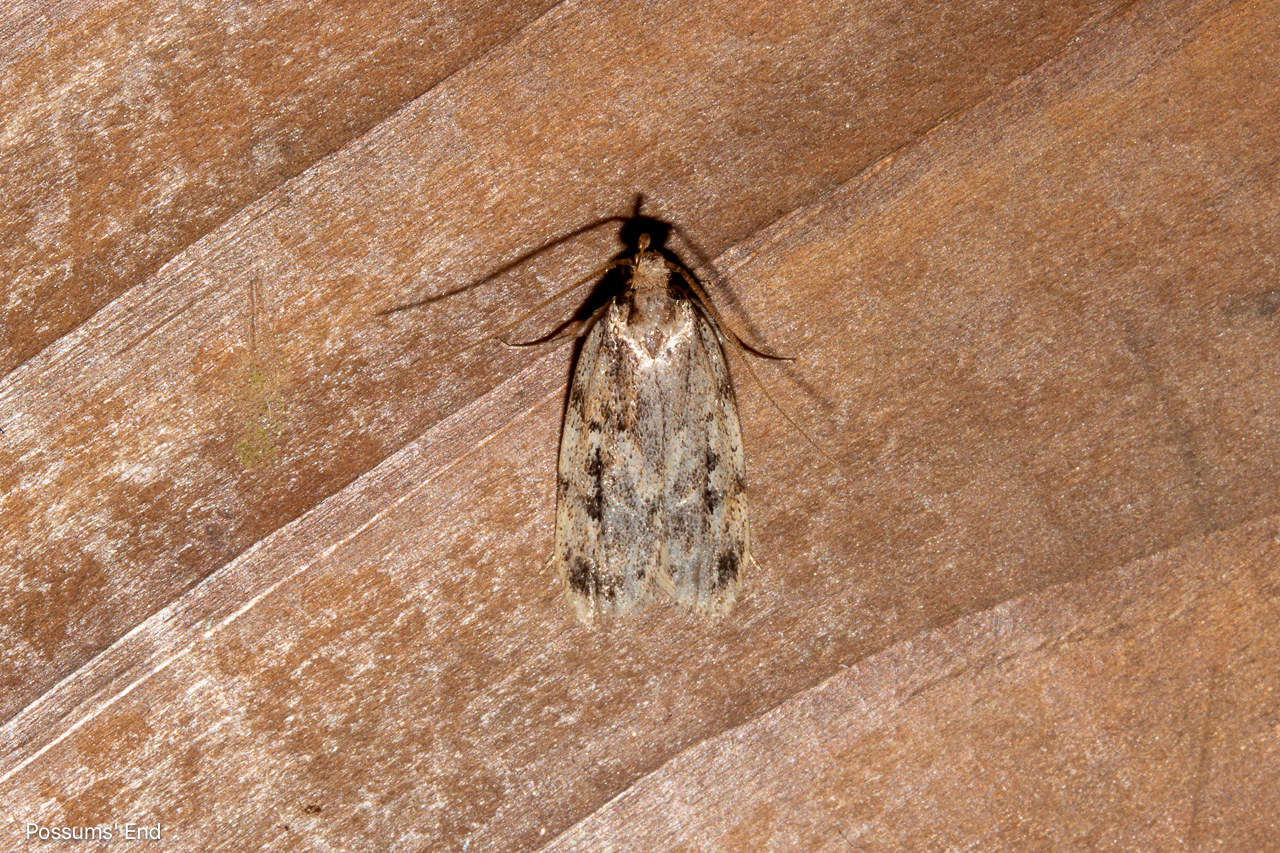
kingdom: Animalia
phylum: Arthropoda
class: Insecta
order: Lepidoptera
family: Oecophoridae
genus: Barea
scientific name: Barea exarcha
